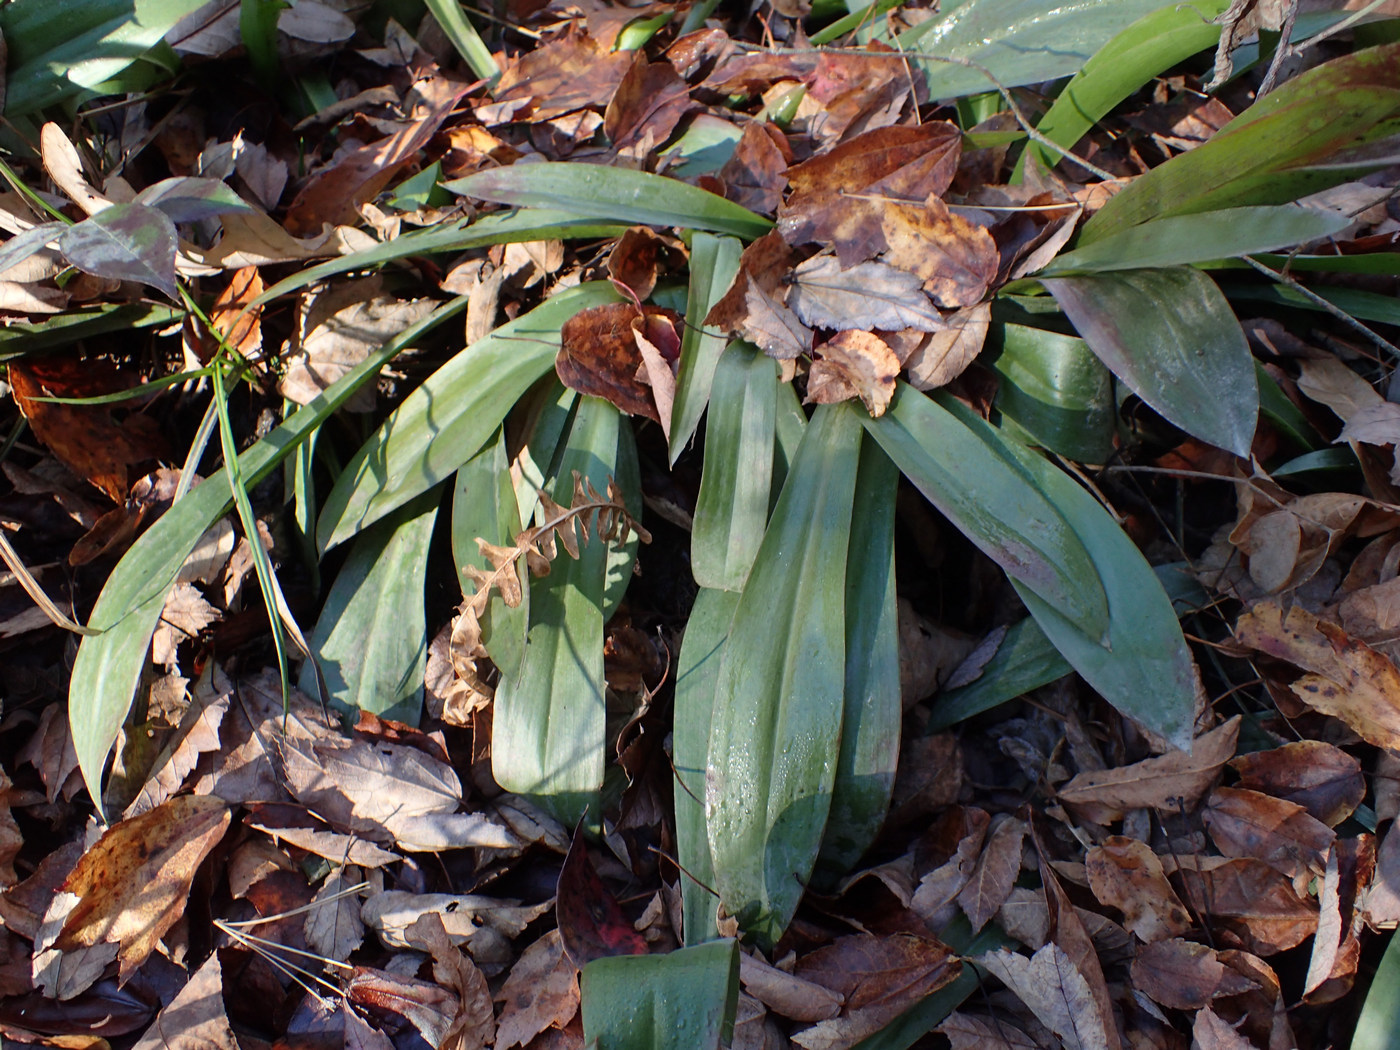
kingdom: Plantae
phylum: Tracheophyta
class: Liliopsida
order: Liliales
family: Melanthiaceae
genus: Helonias
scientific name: Helonias bullata
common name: Swamp-pink
